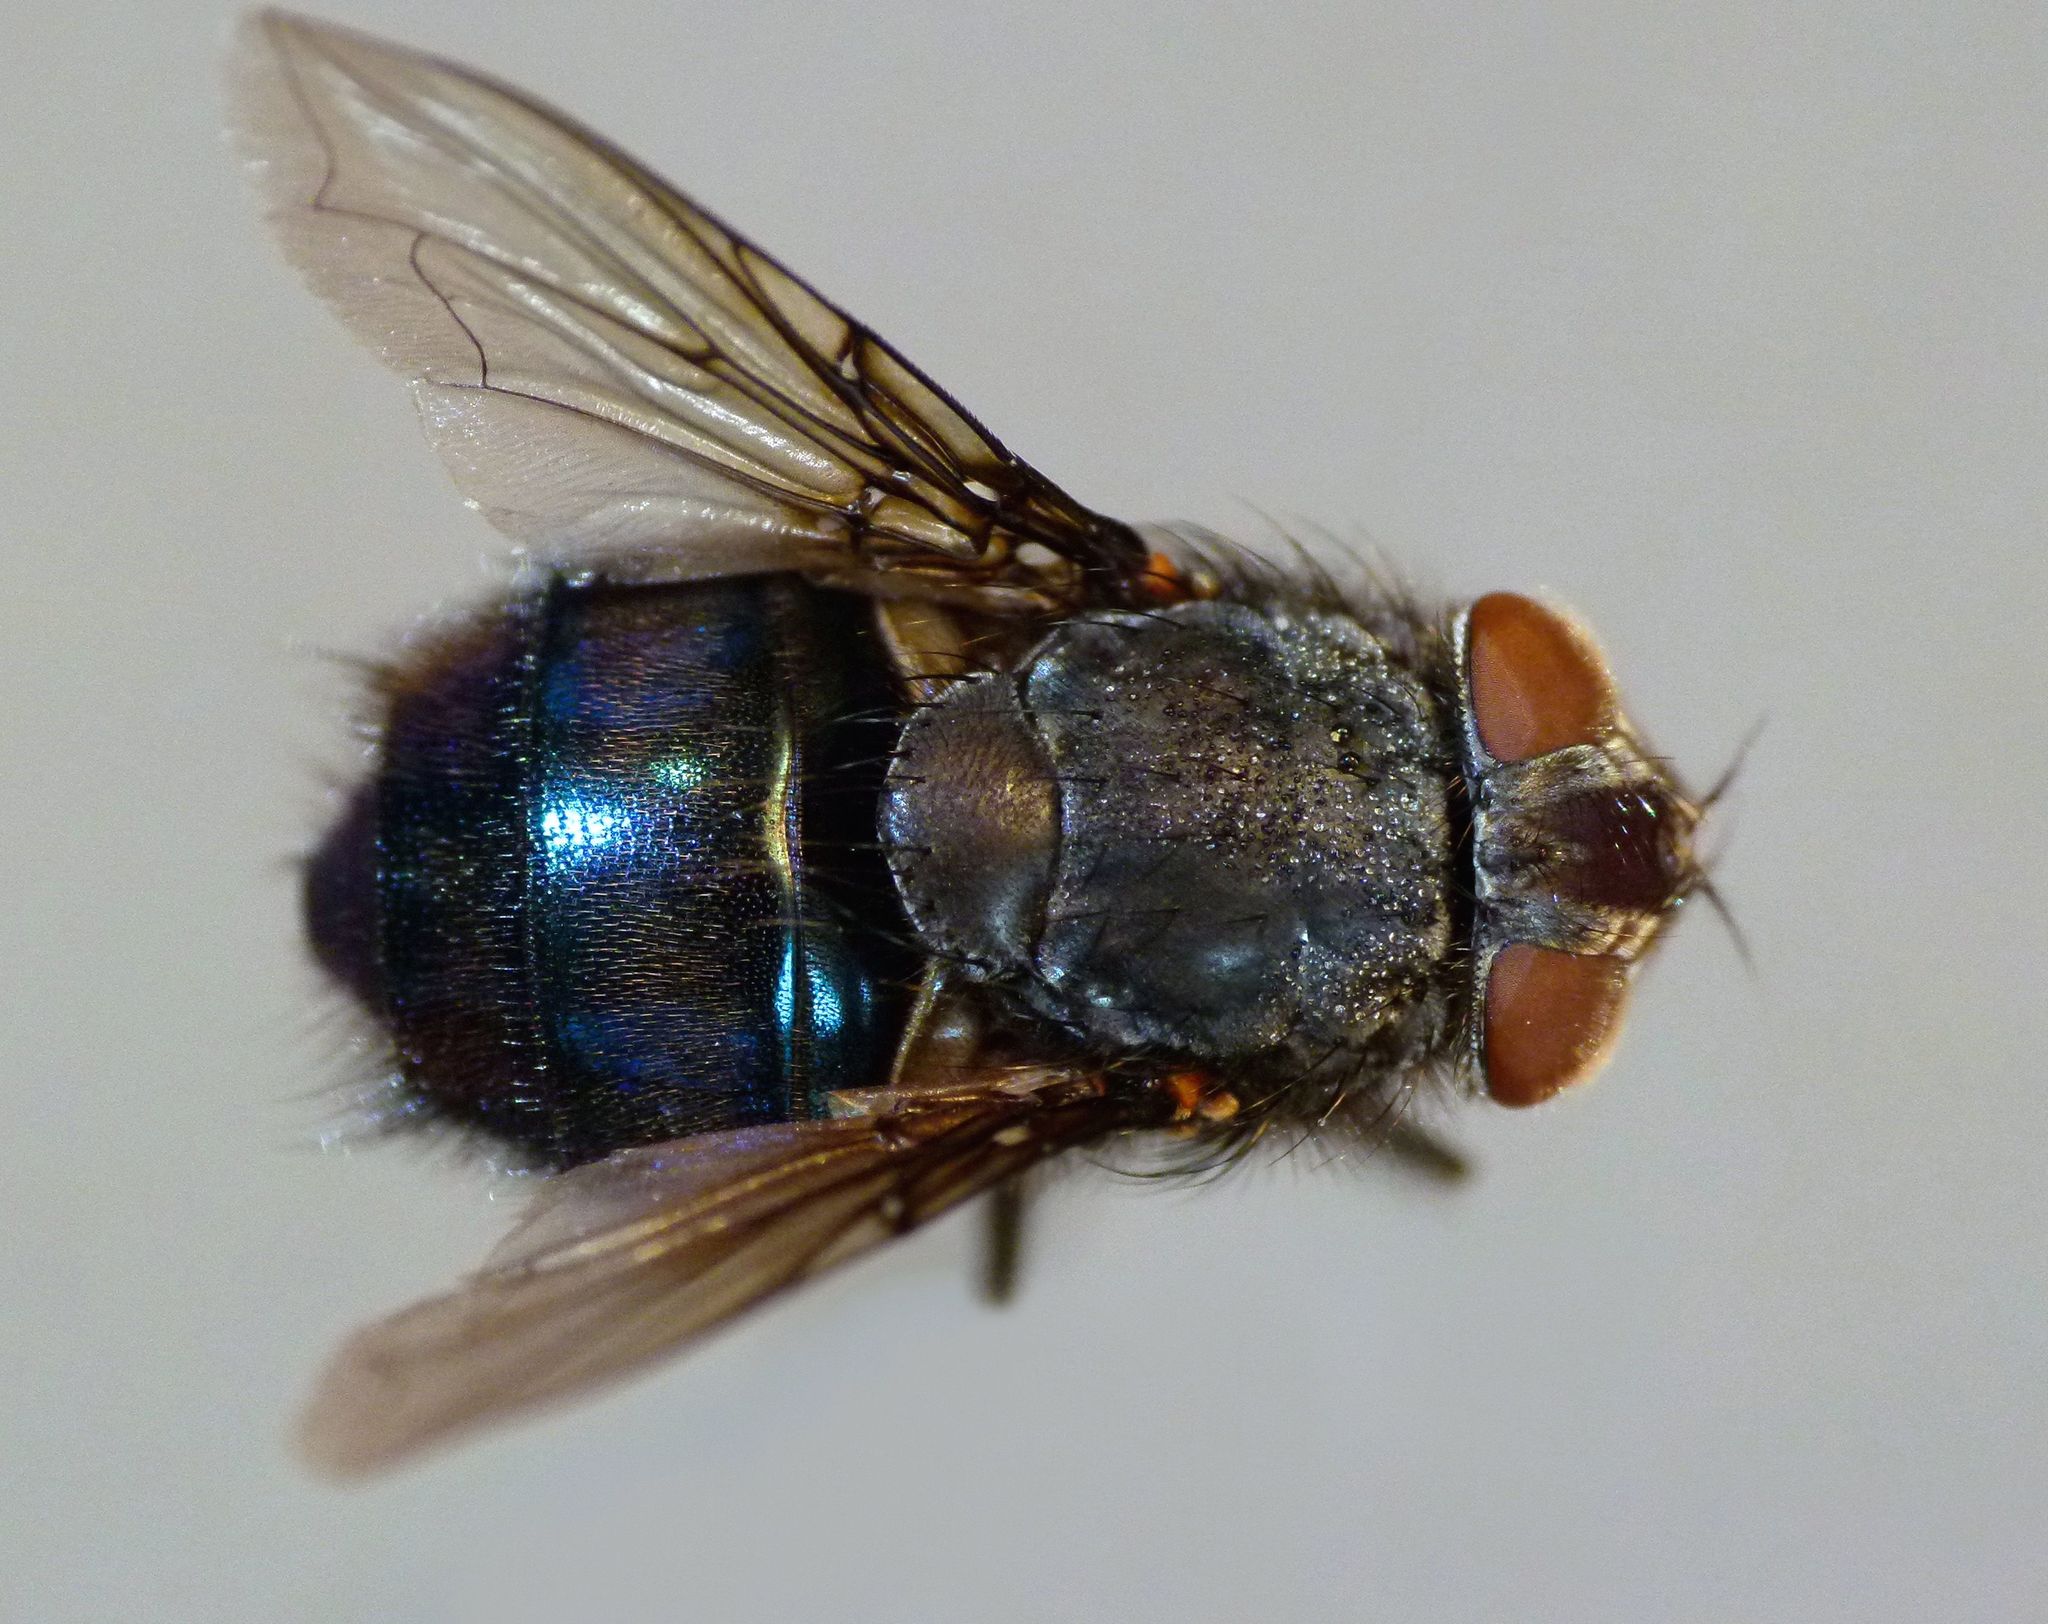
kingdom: Animalia
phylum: Arthropoda
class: Insecta
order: Diptera
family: Calliphoridae
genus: Calliphora
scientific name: Calliphora quadrimaculata
